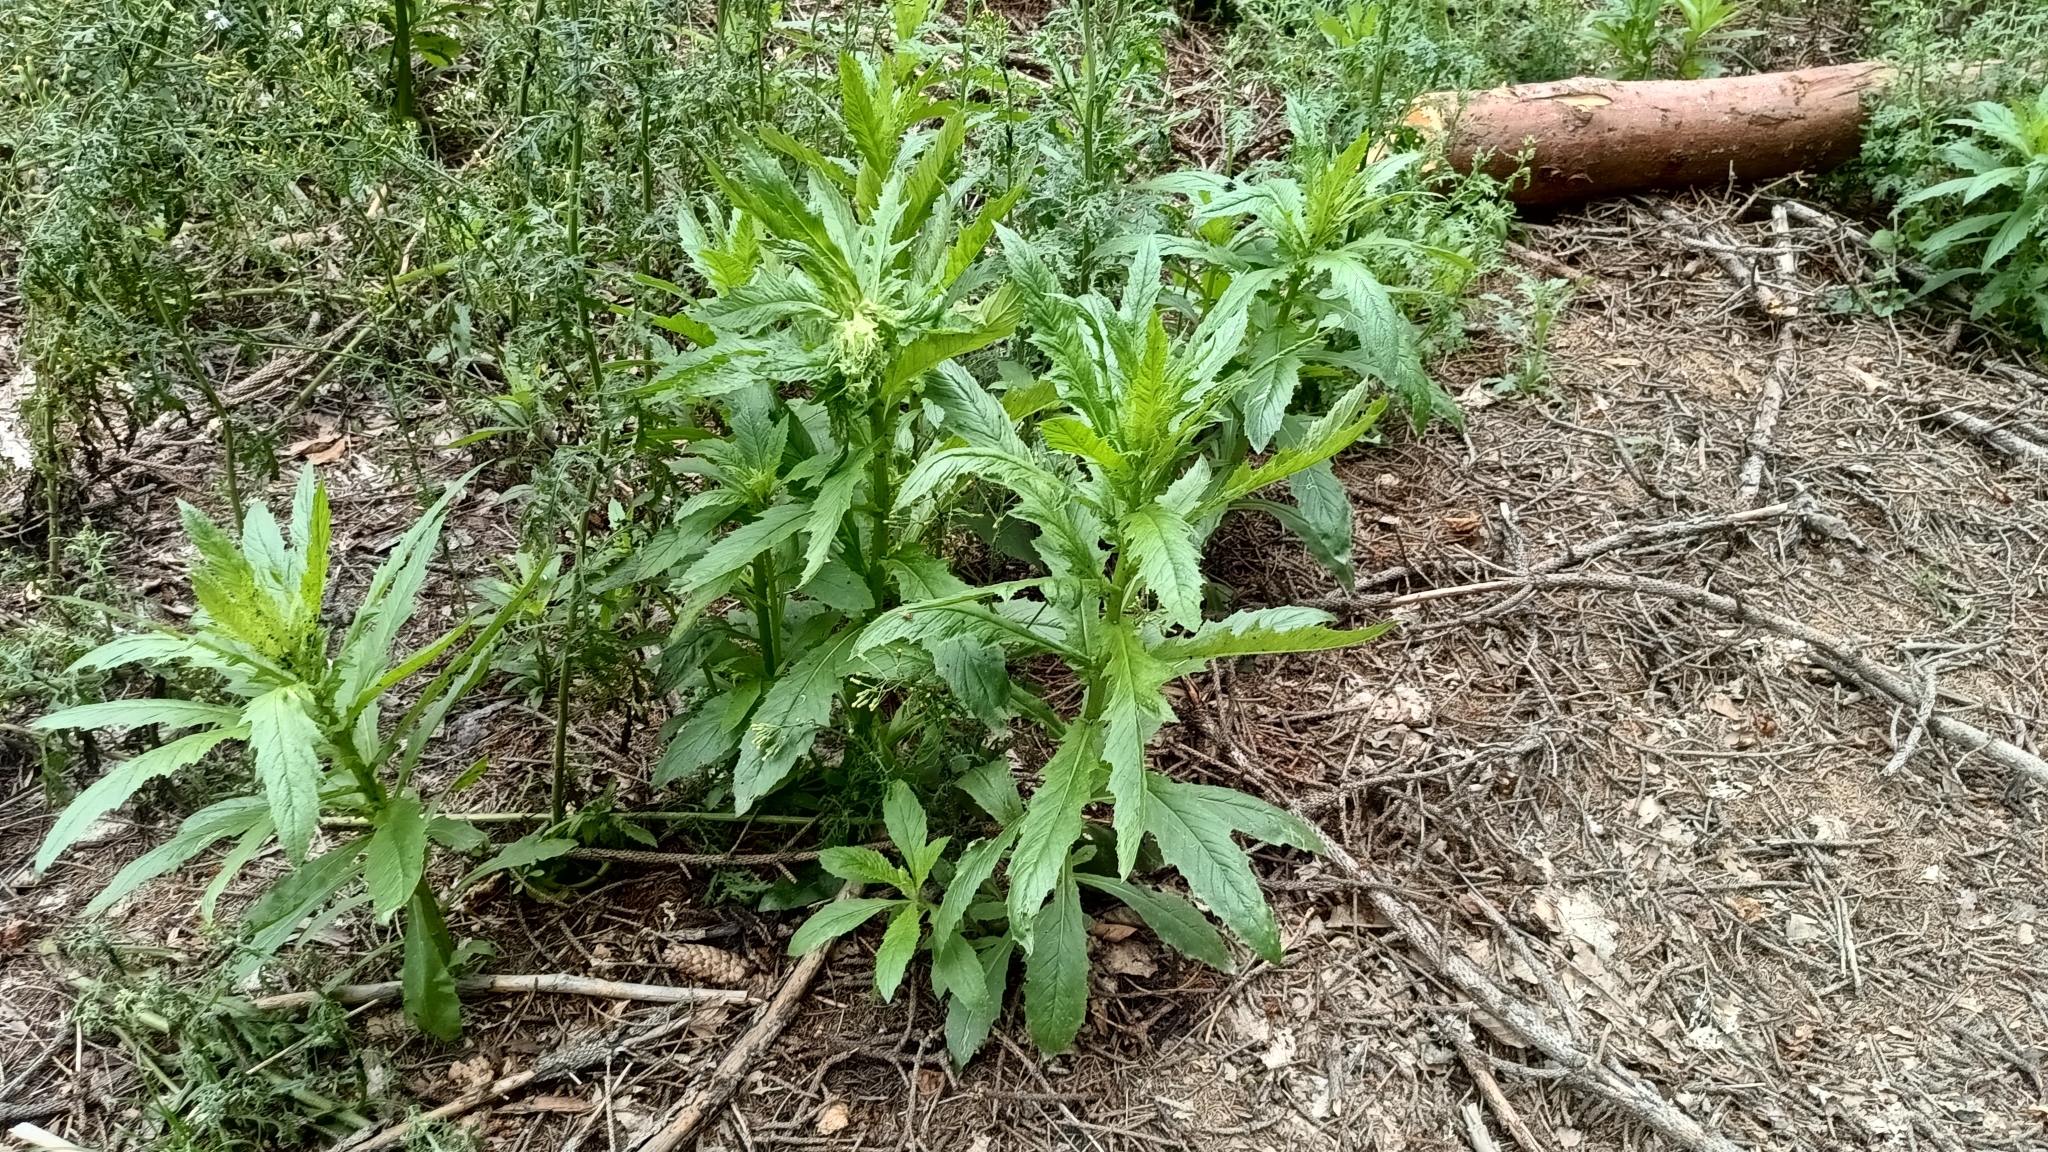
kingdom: Plantae
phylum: Tracheophyta
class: Magnoliopsida
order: Asterales
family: Asteraceae
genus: Erechtites
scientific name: Erechtites hieraciifolius
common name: American burnweed
